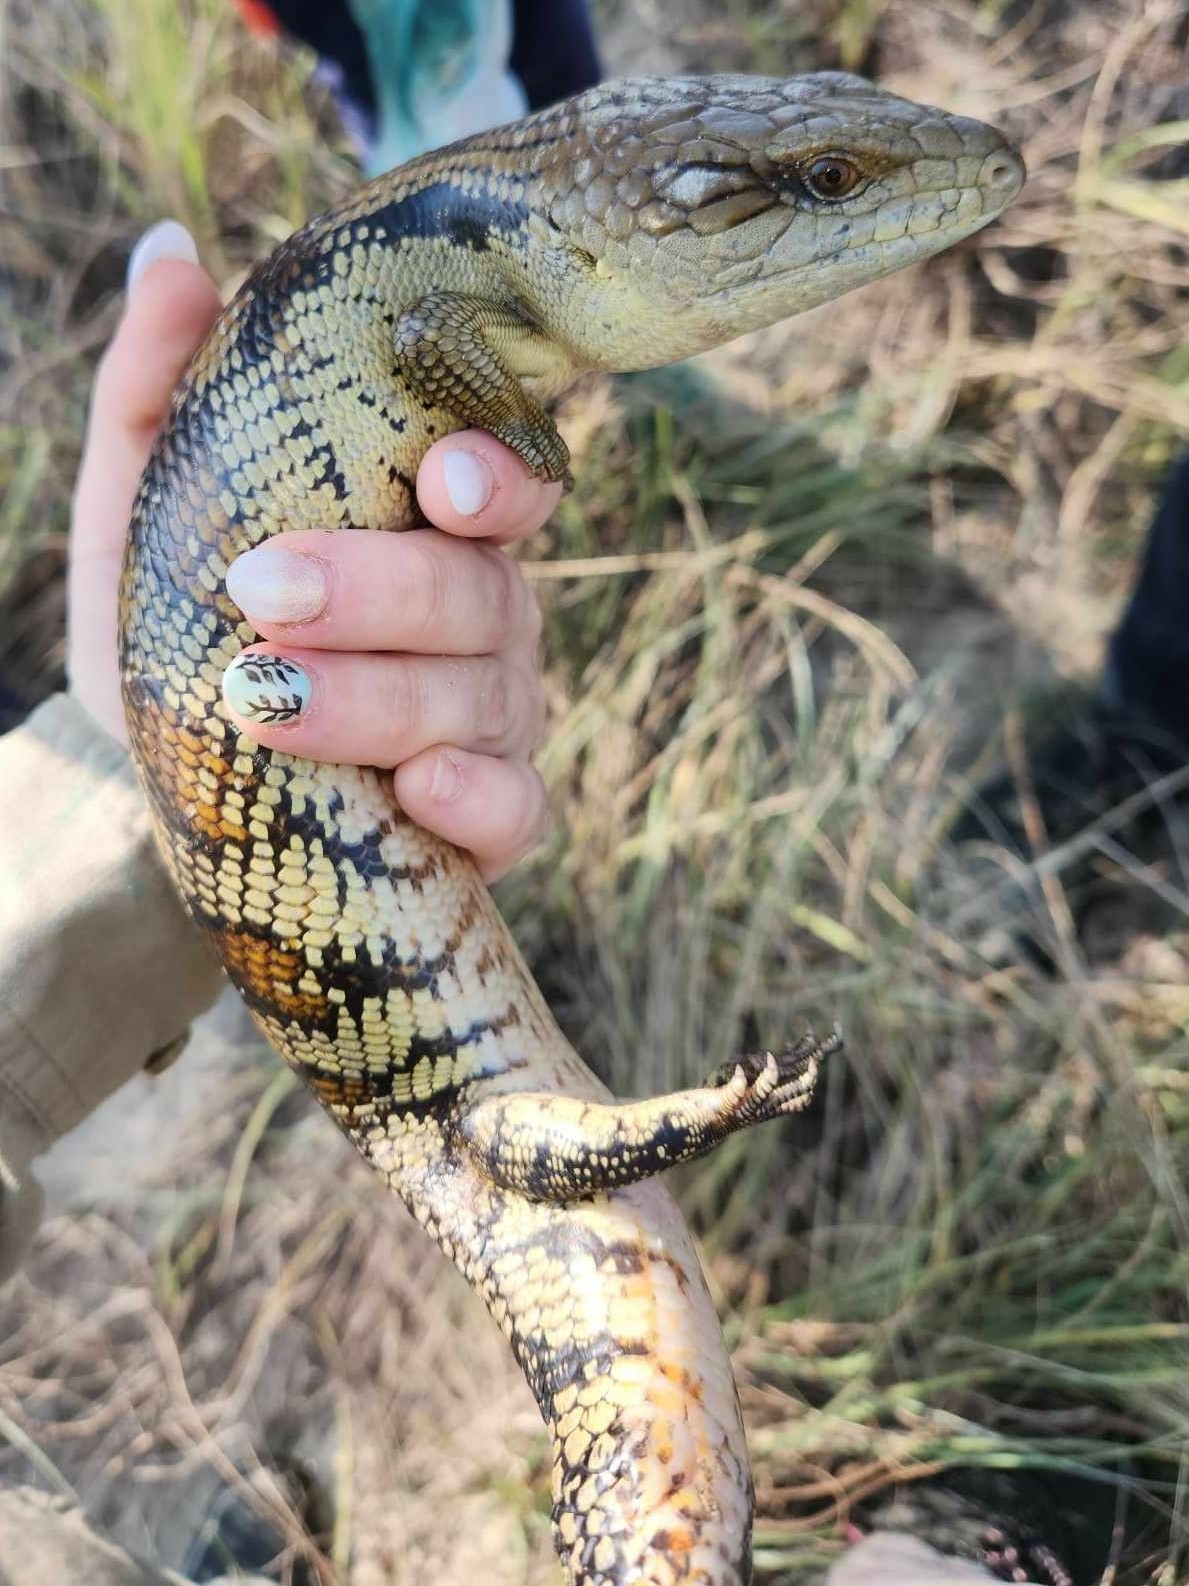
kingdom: Animalia
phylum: Chordata
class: Squamata
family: Scincidae
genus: Tiliqua
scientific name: Tiliqua scincoides
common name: Common bluetongue
